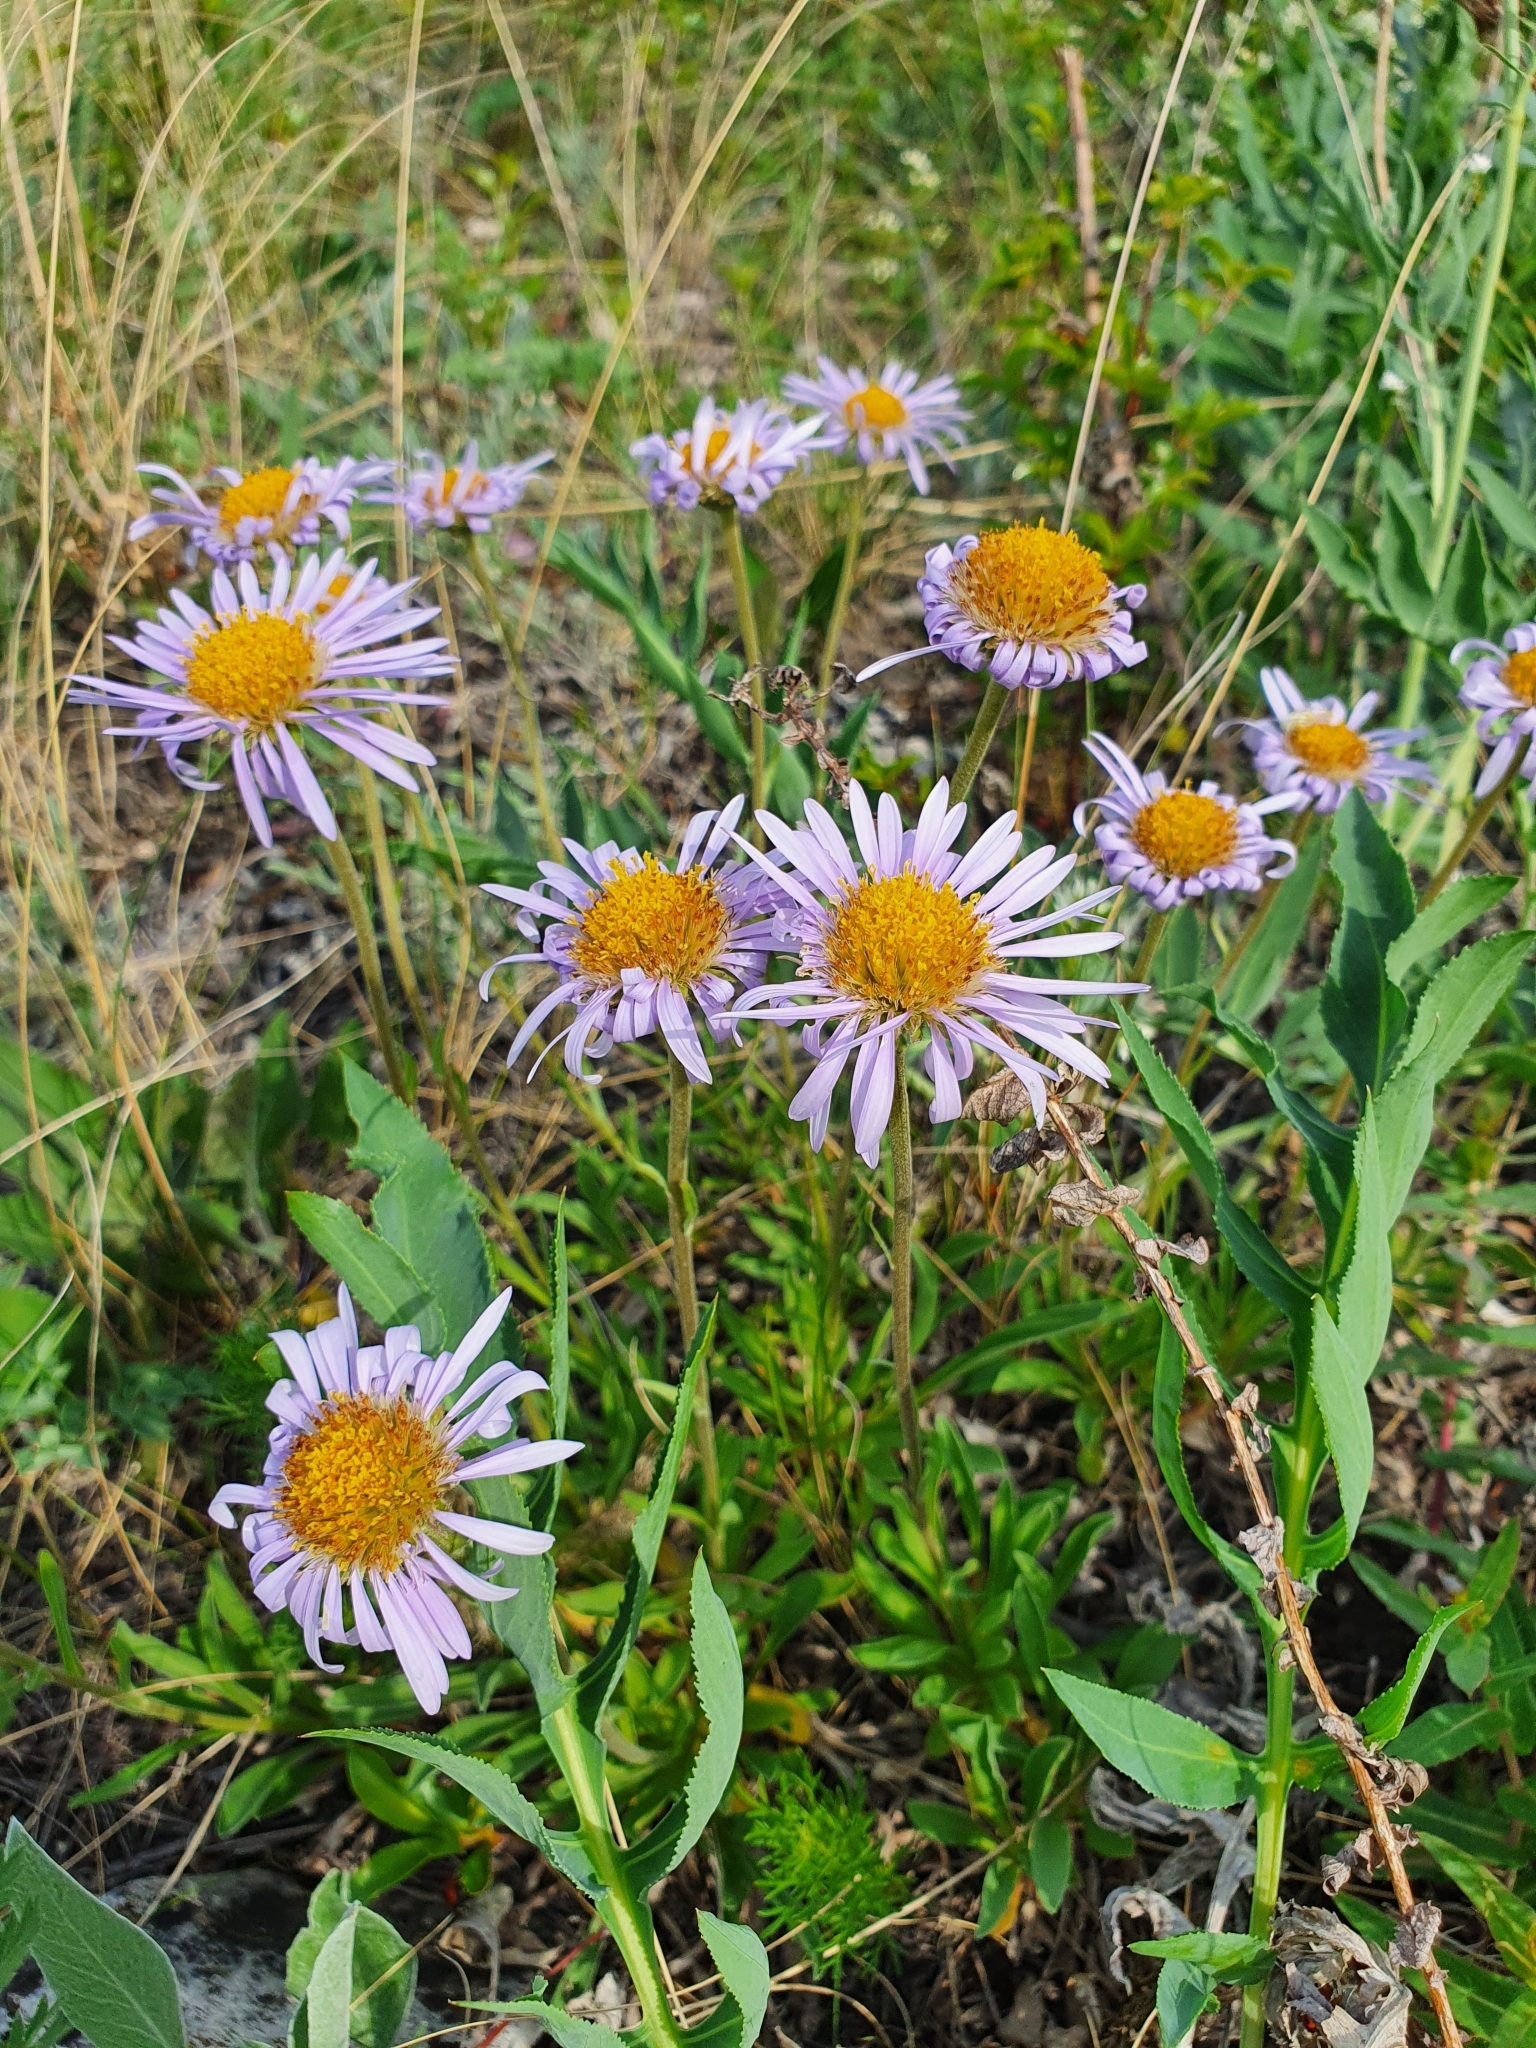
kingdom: Plantae
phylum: Tracheophyta
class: Magnoliopsida
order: Asterales
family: Asteraceae
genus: Aster
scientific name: Aster alpinus
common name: Alpine aster
